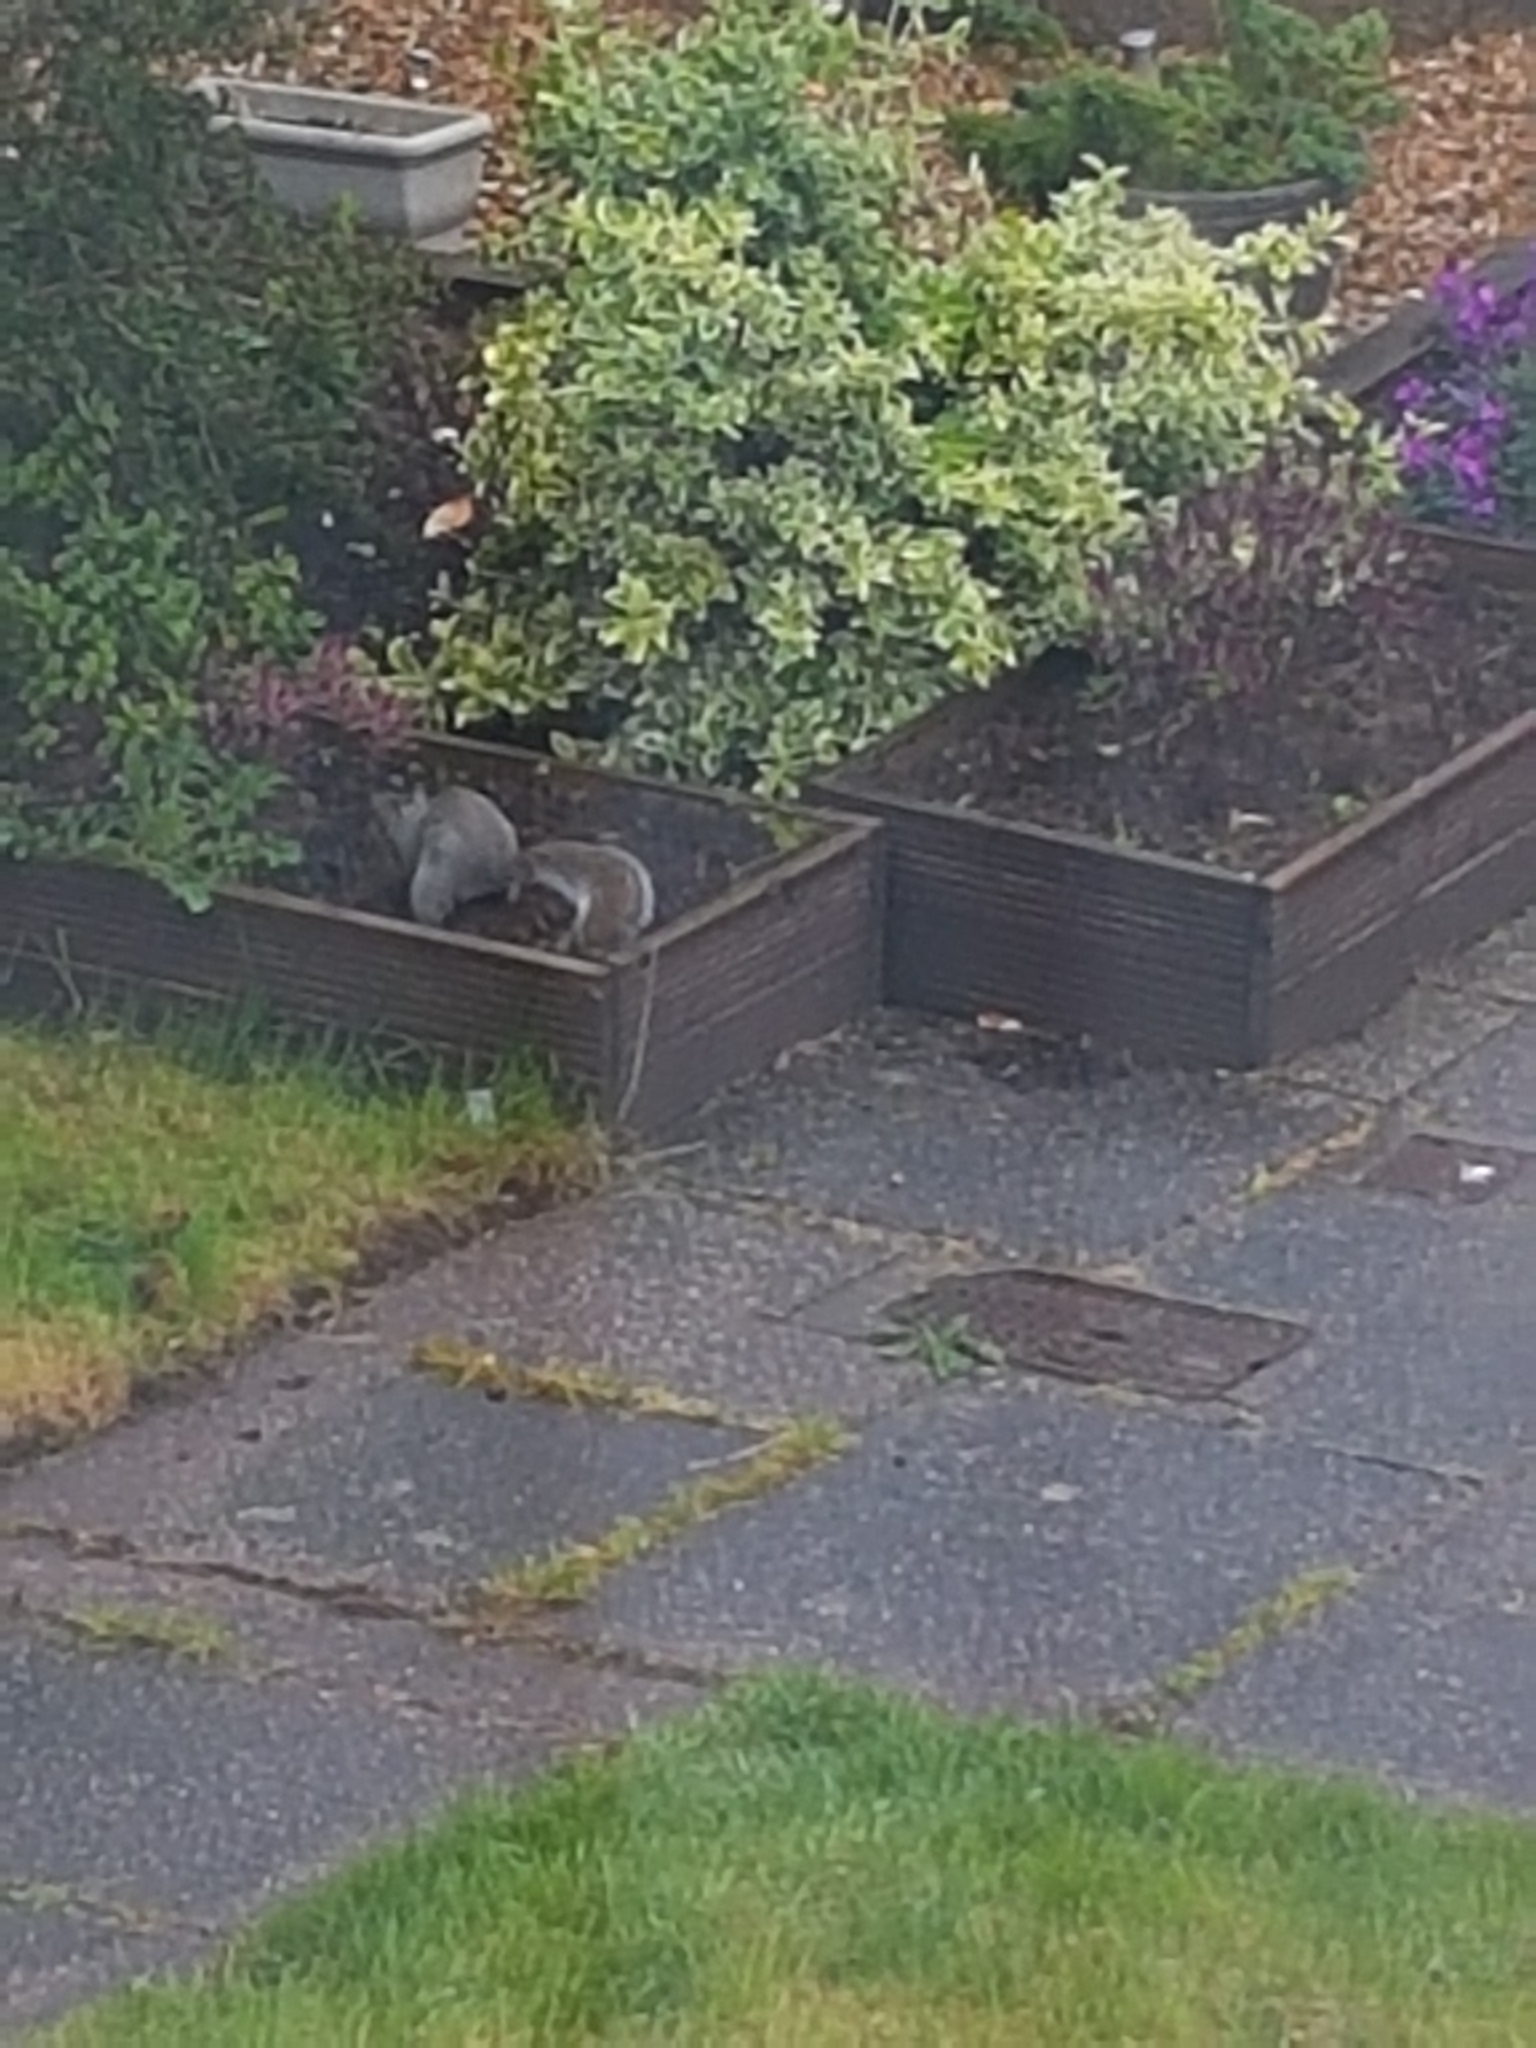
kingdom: Animalia
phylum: Chordata
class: Mammalia
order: Rodentia
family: Sciuridae
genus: Sciurus
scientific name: Sciurus carolinensis
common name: Eastern gray squirrel
